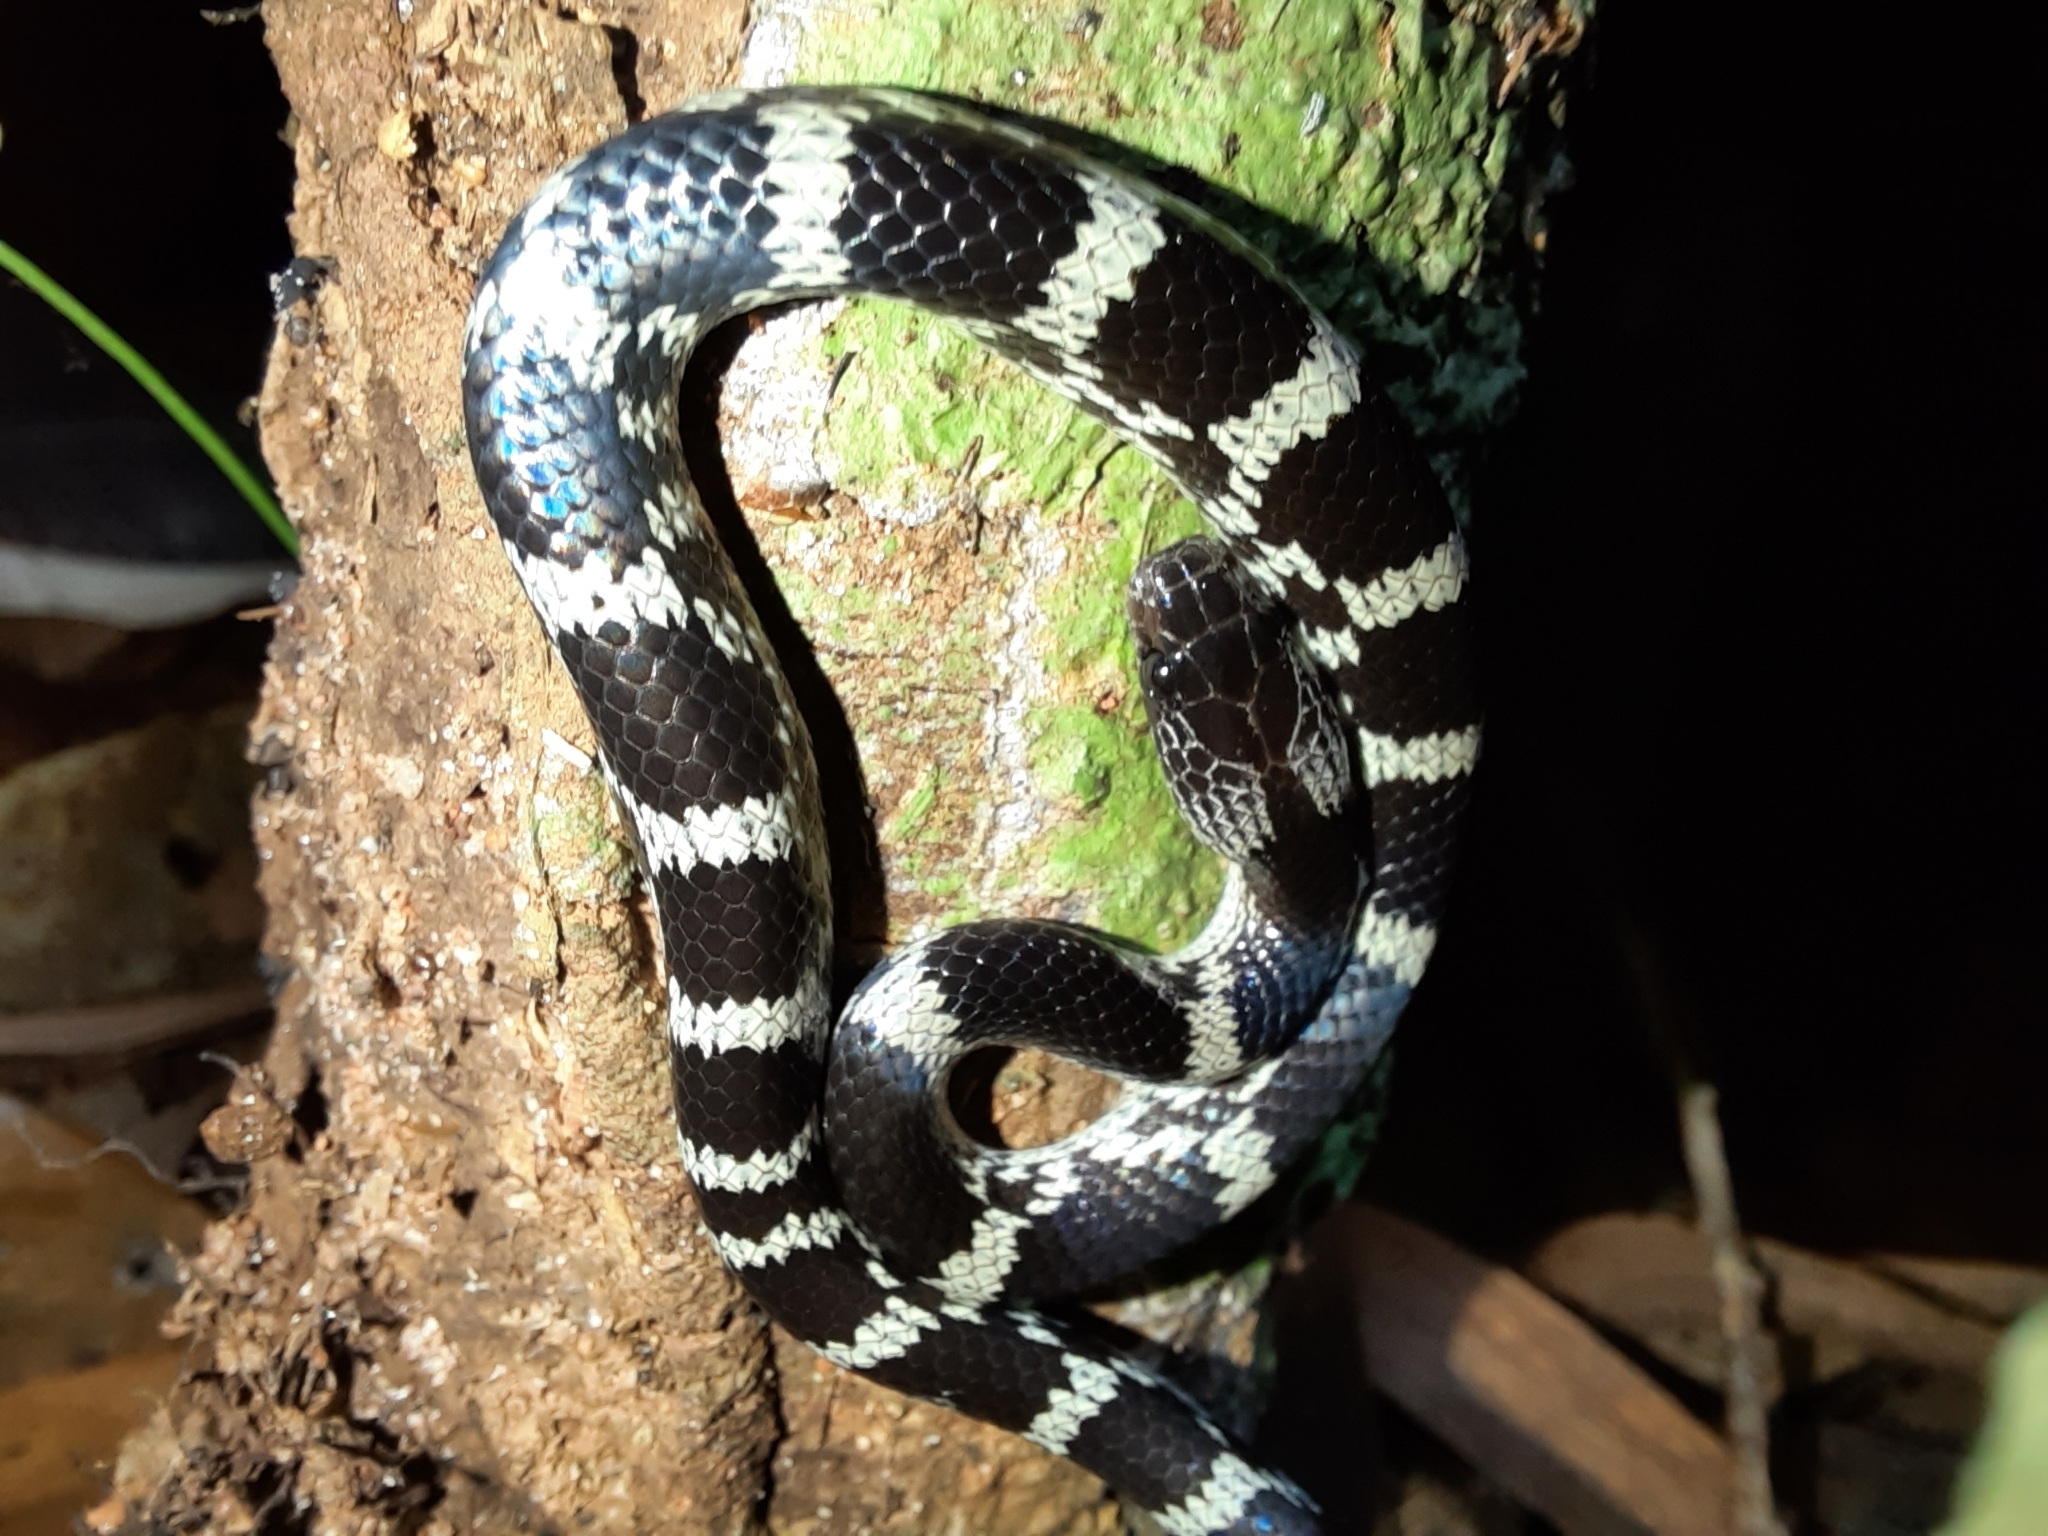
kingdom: Animalia
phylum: Chordata
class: Squamata
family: Colubridae
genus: Lycodon
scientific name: Lycodon travancoricus
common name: Travancore wolf snake
